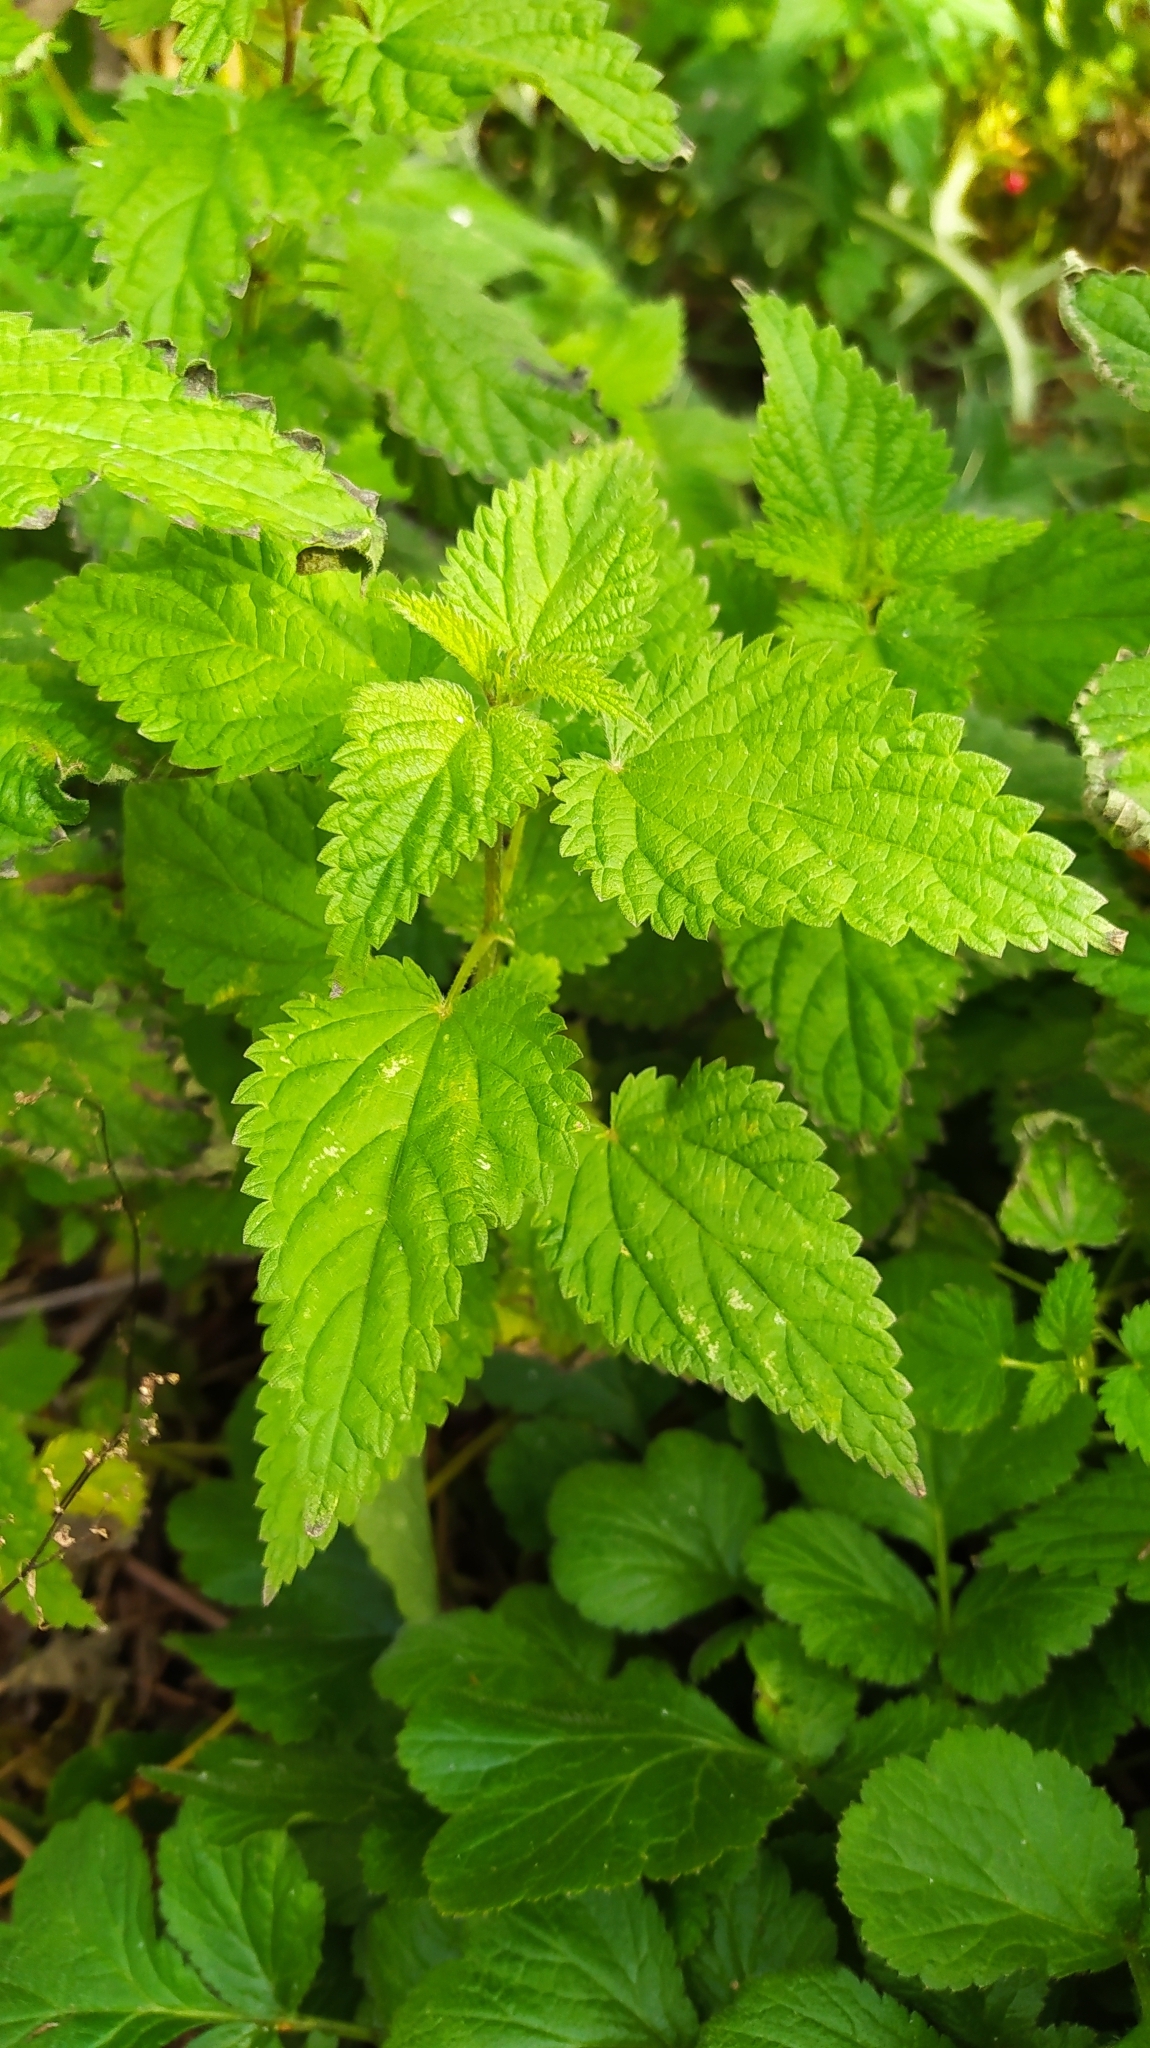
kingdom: Plantae
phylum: Tracheophyta
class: Magnoliopsida
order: Rosales
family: Urticaceae
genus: Urtica
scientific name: Urtica dioica
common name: Common nettle
